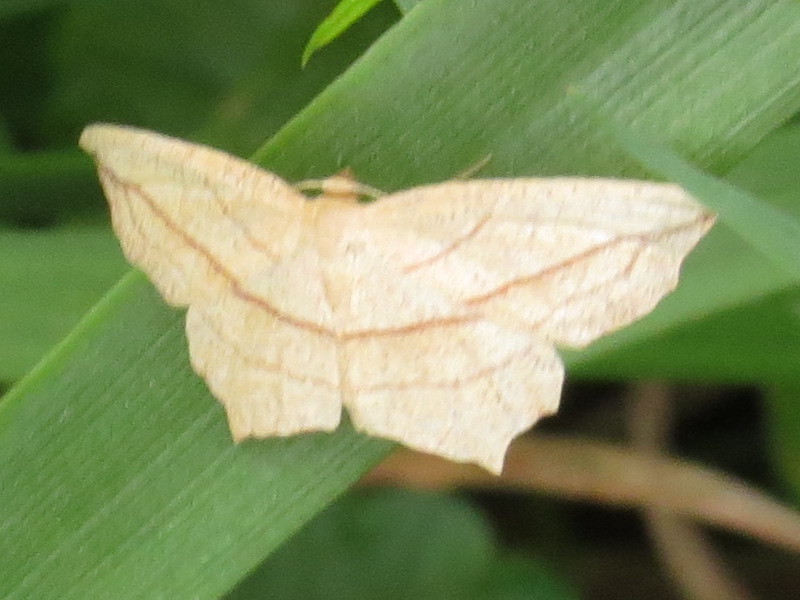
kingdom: Animalia
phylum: Arthropoda
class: Insecta
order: Lepidoptera
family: Geometridae
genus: Timandra
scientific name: Timandra amaturaria
